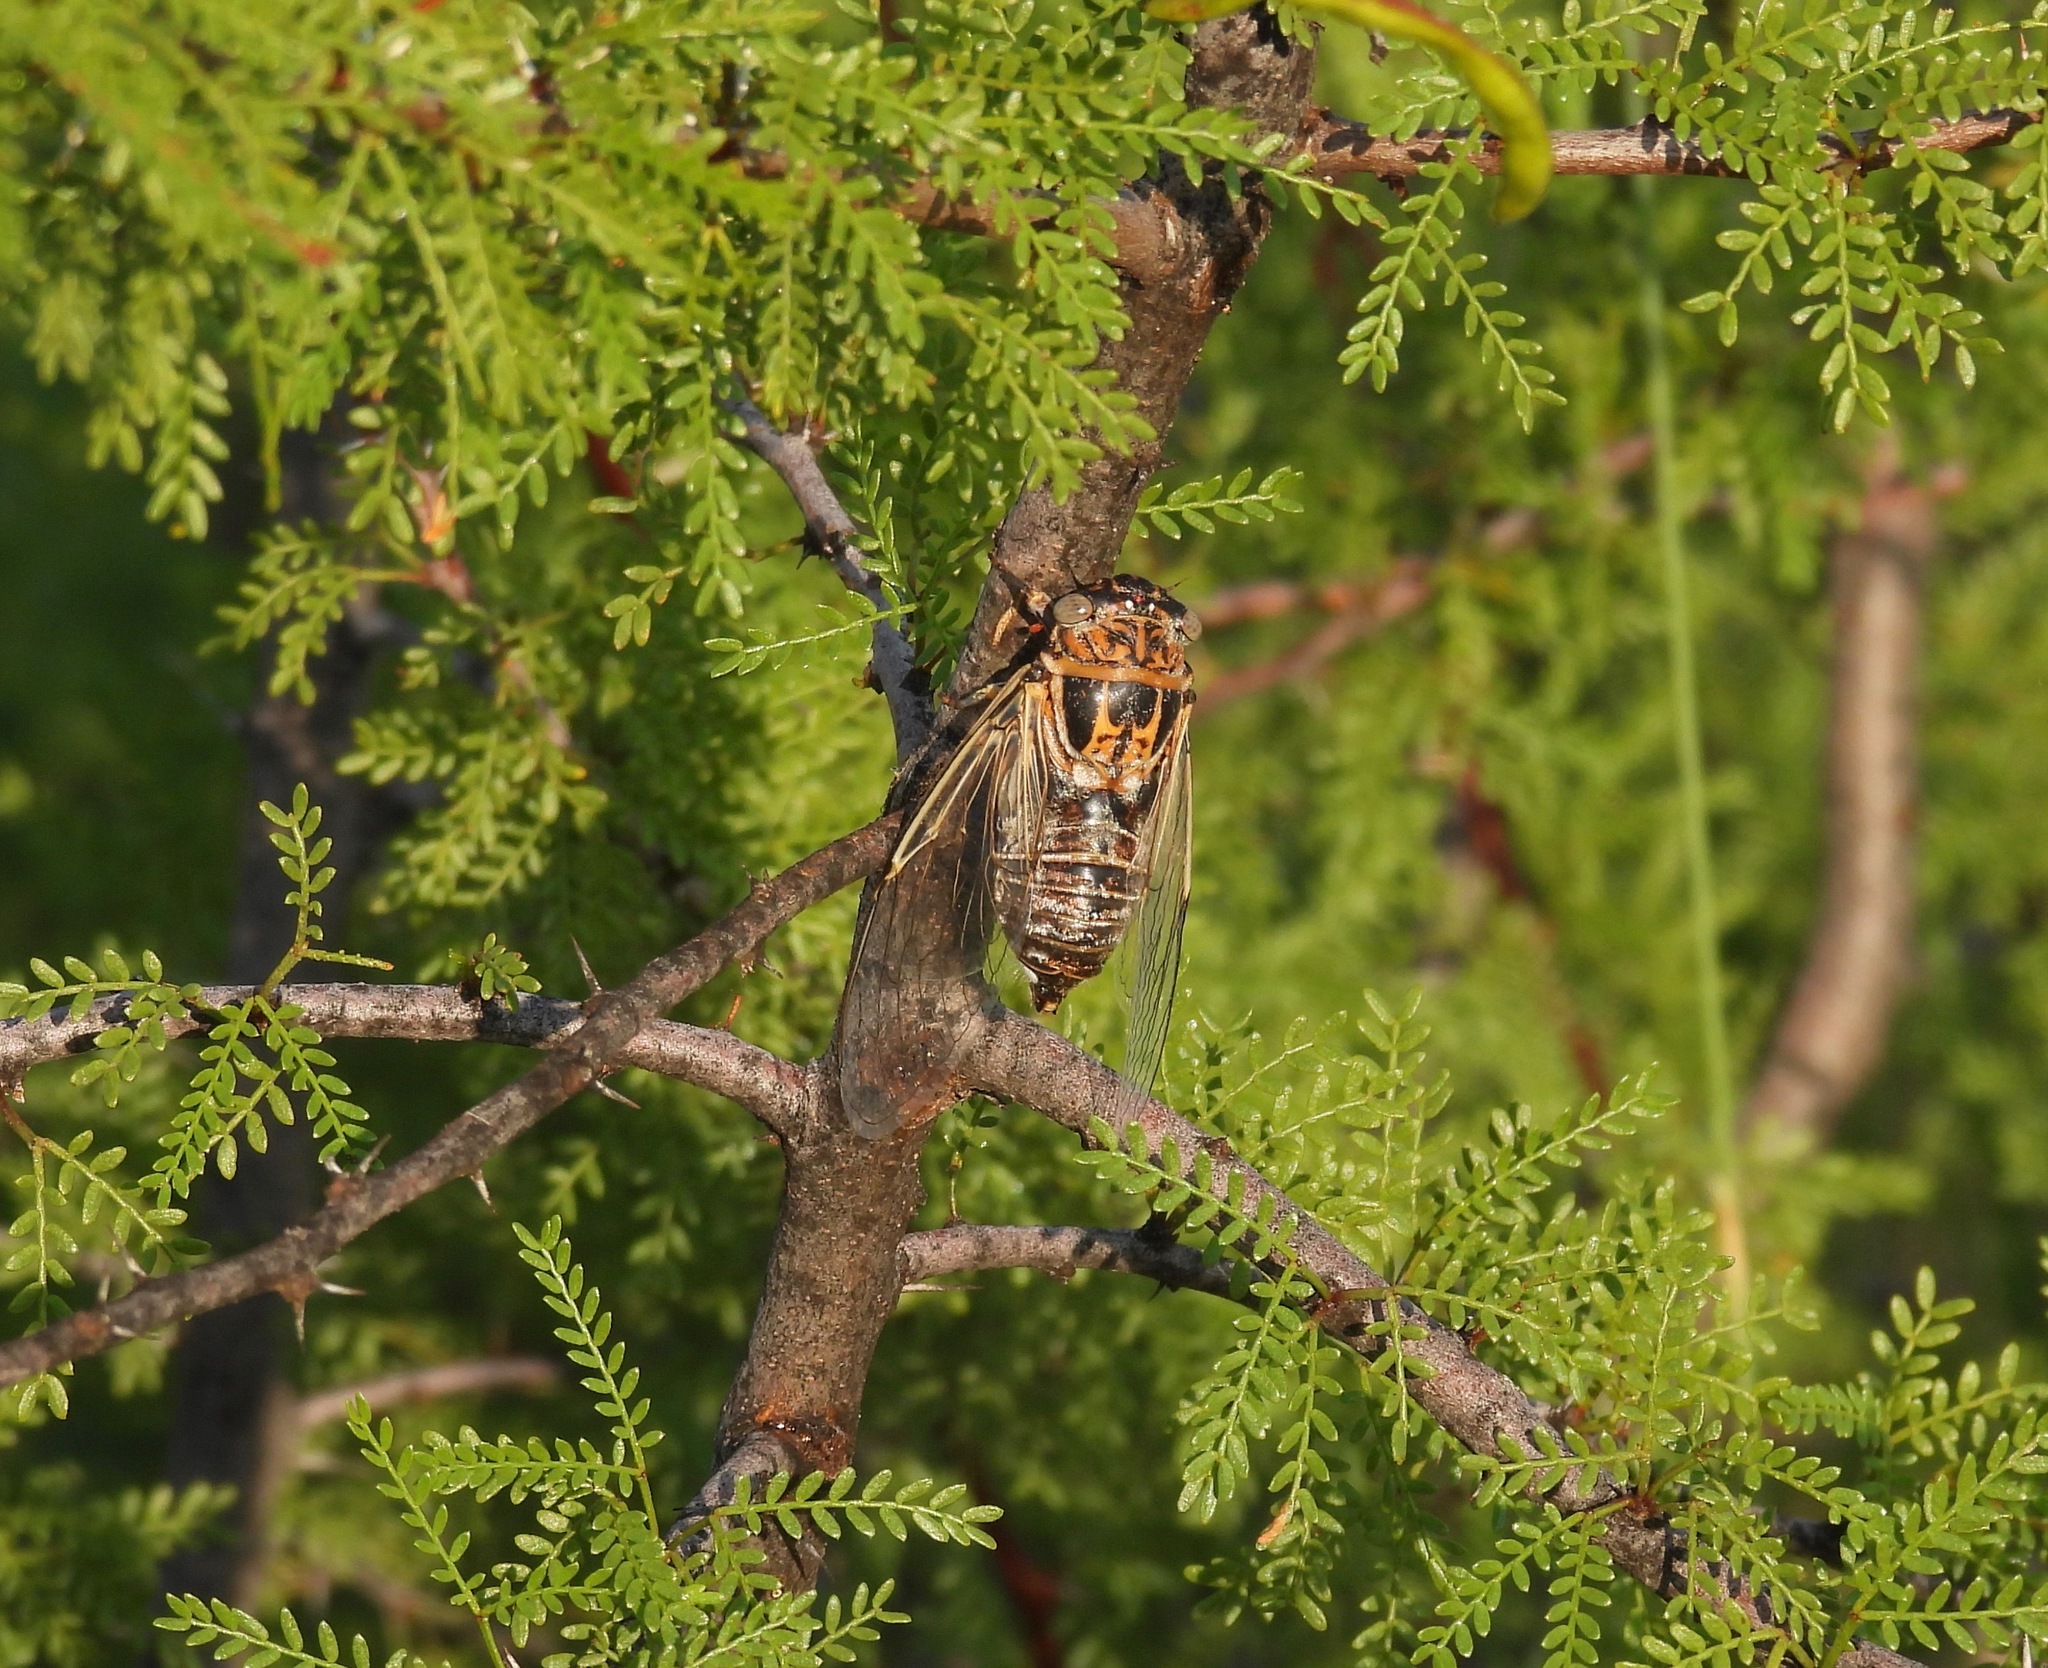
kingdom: Animalia
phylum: Arthropoda
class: Insecta
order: Hemiptera
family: Cicadidae
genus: Diceroprocta
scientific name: Diceroprocta eugraphica
